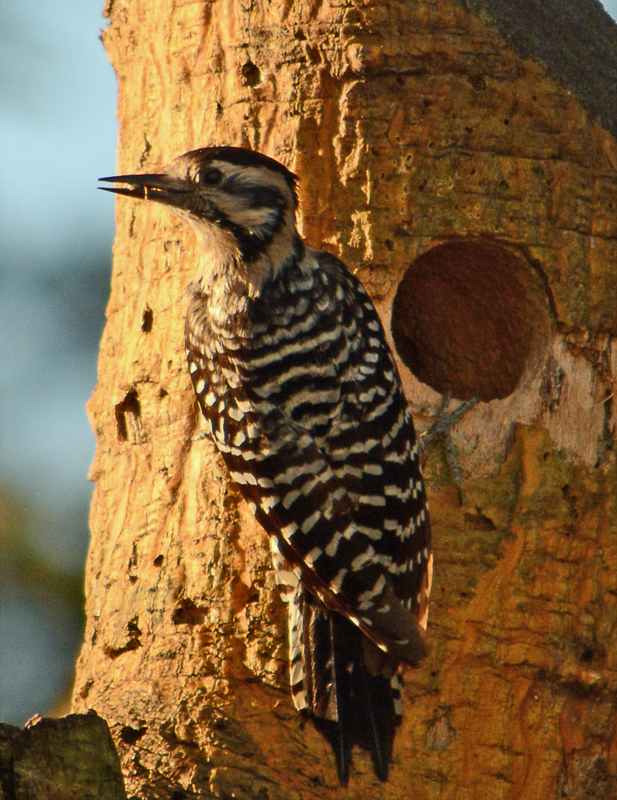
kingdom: Animalia
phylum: Chordata
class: Aves
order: Piciformes
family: Picidae
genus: Dryobates
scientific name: Dryobates scalaris
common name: Ladder-backed woodpecker
